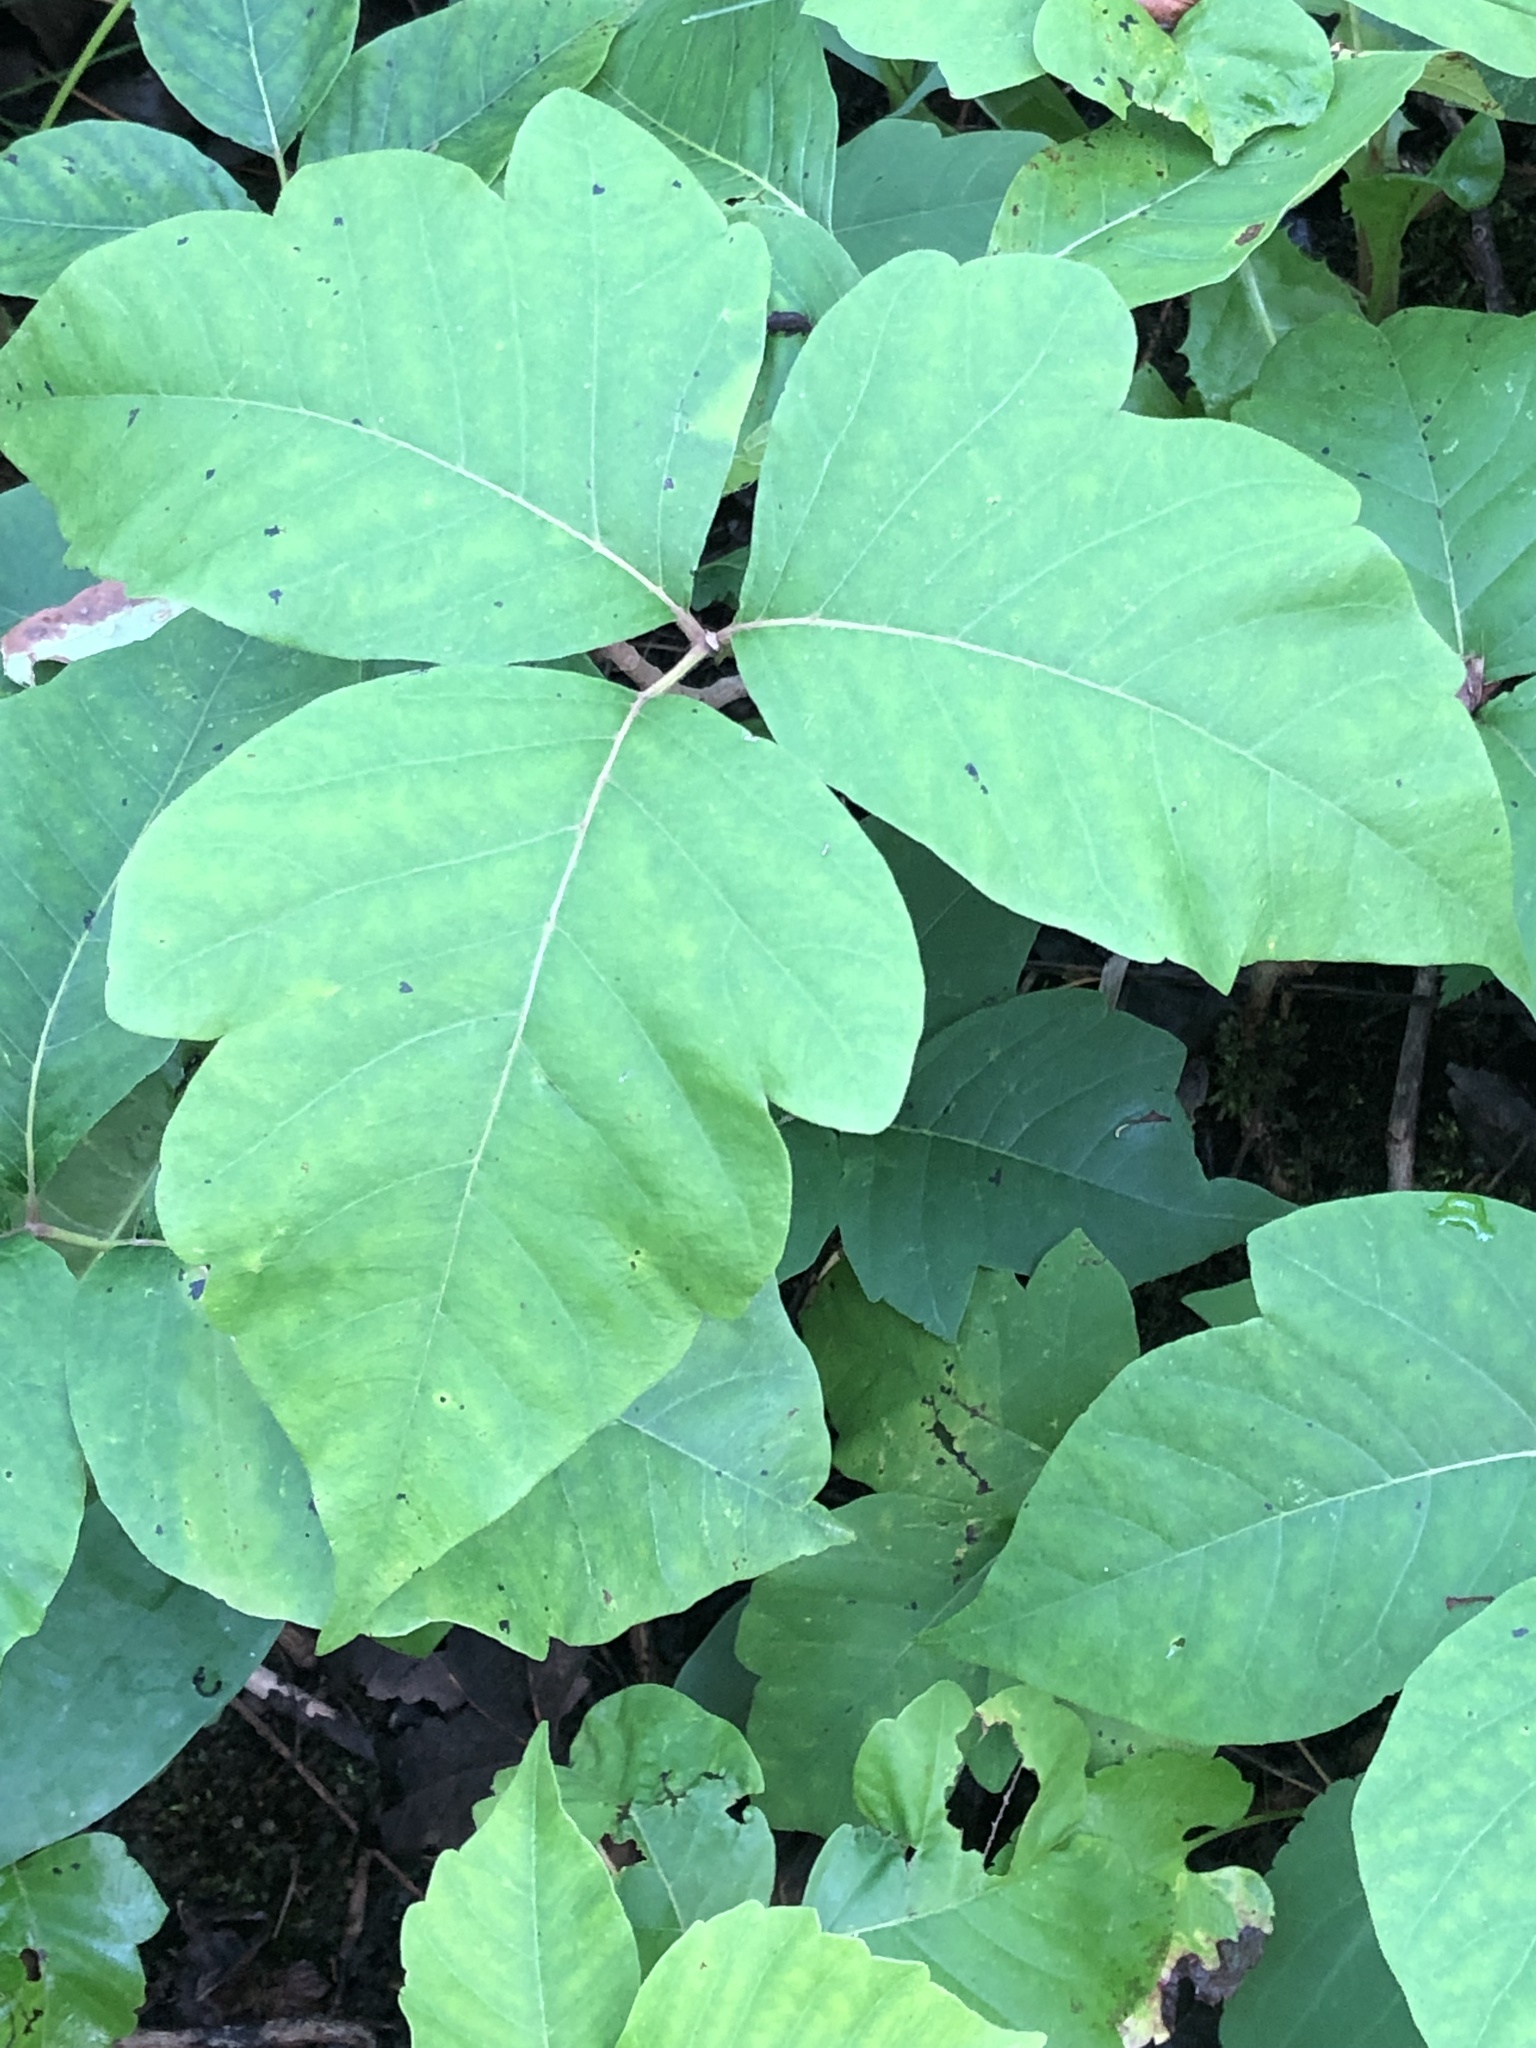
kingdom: Plantae
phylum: Tracheophyta
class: Magnoliopsida
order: Sapindales
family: Anacardiaceae
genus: Toxicodendron
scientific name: Toxicodendron rydbergii
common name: Rydberg's poison-ivy
